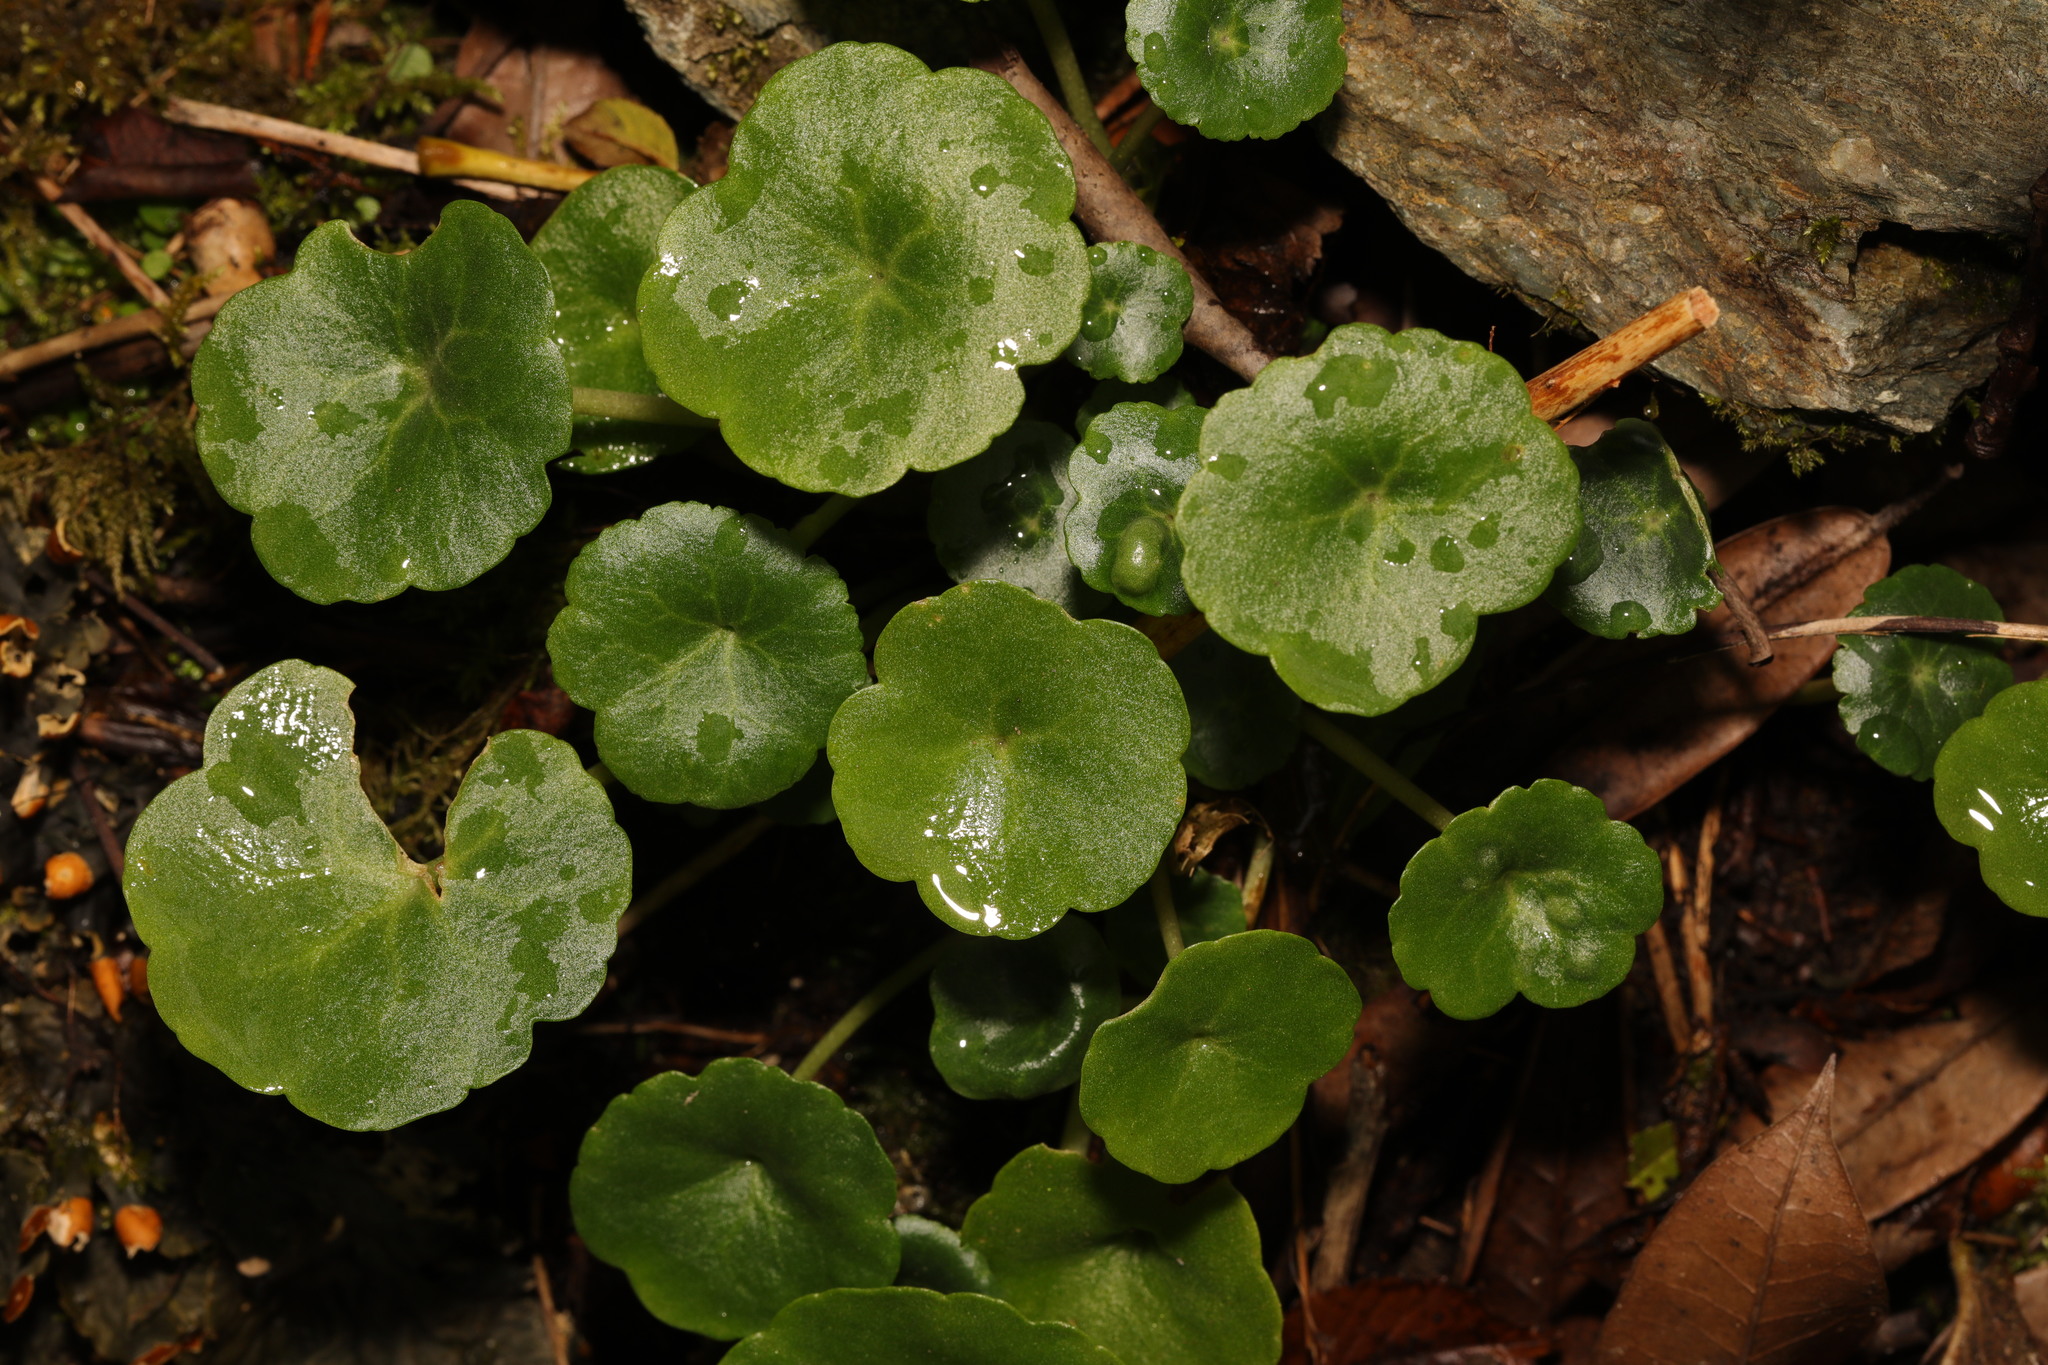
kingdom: Plantae
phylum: Tracheophyta
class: Magnoliopsida
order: Saxifragales
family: Crassulaceae
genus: Umbilicus
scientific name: Umbilicus rupestris
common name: Navelwort
